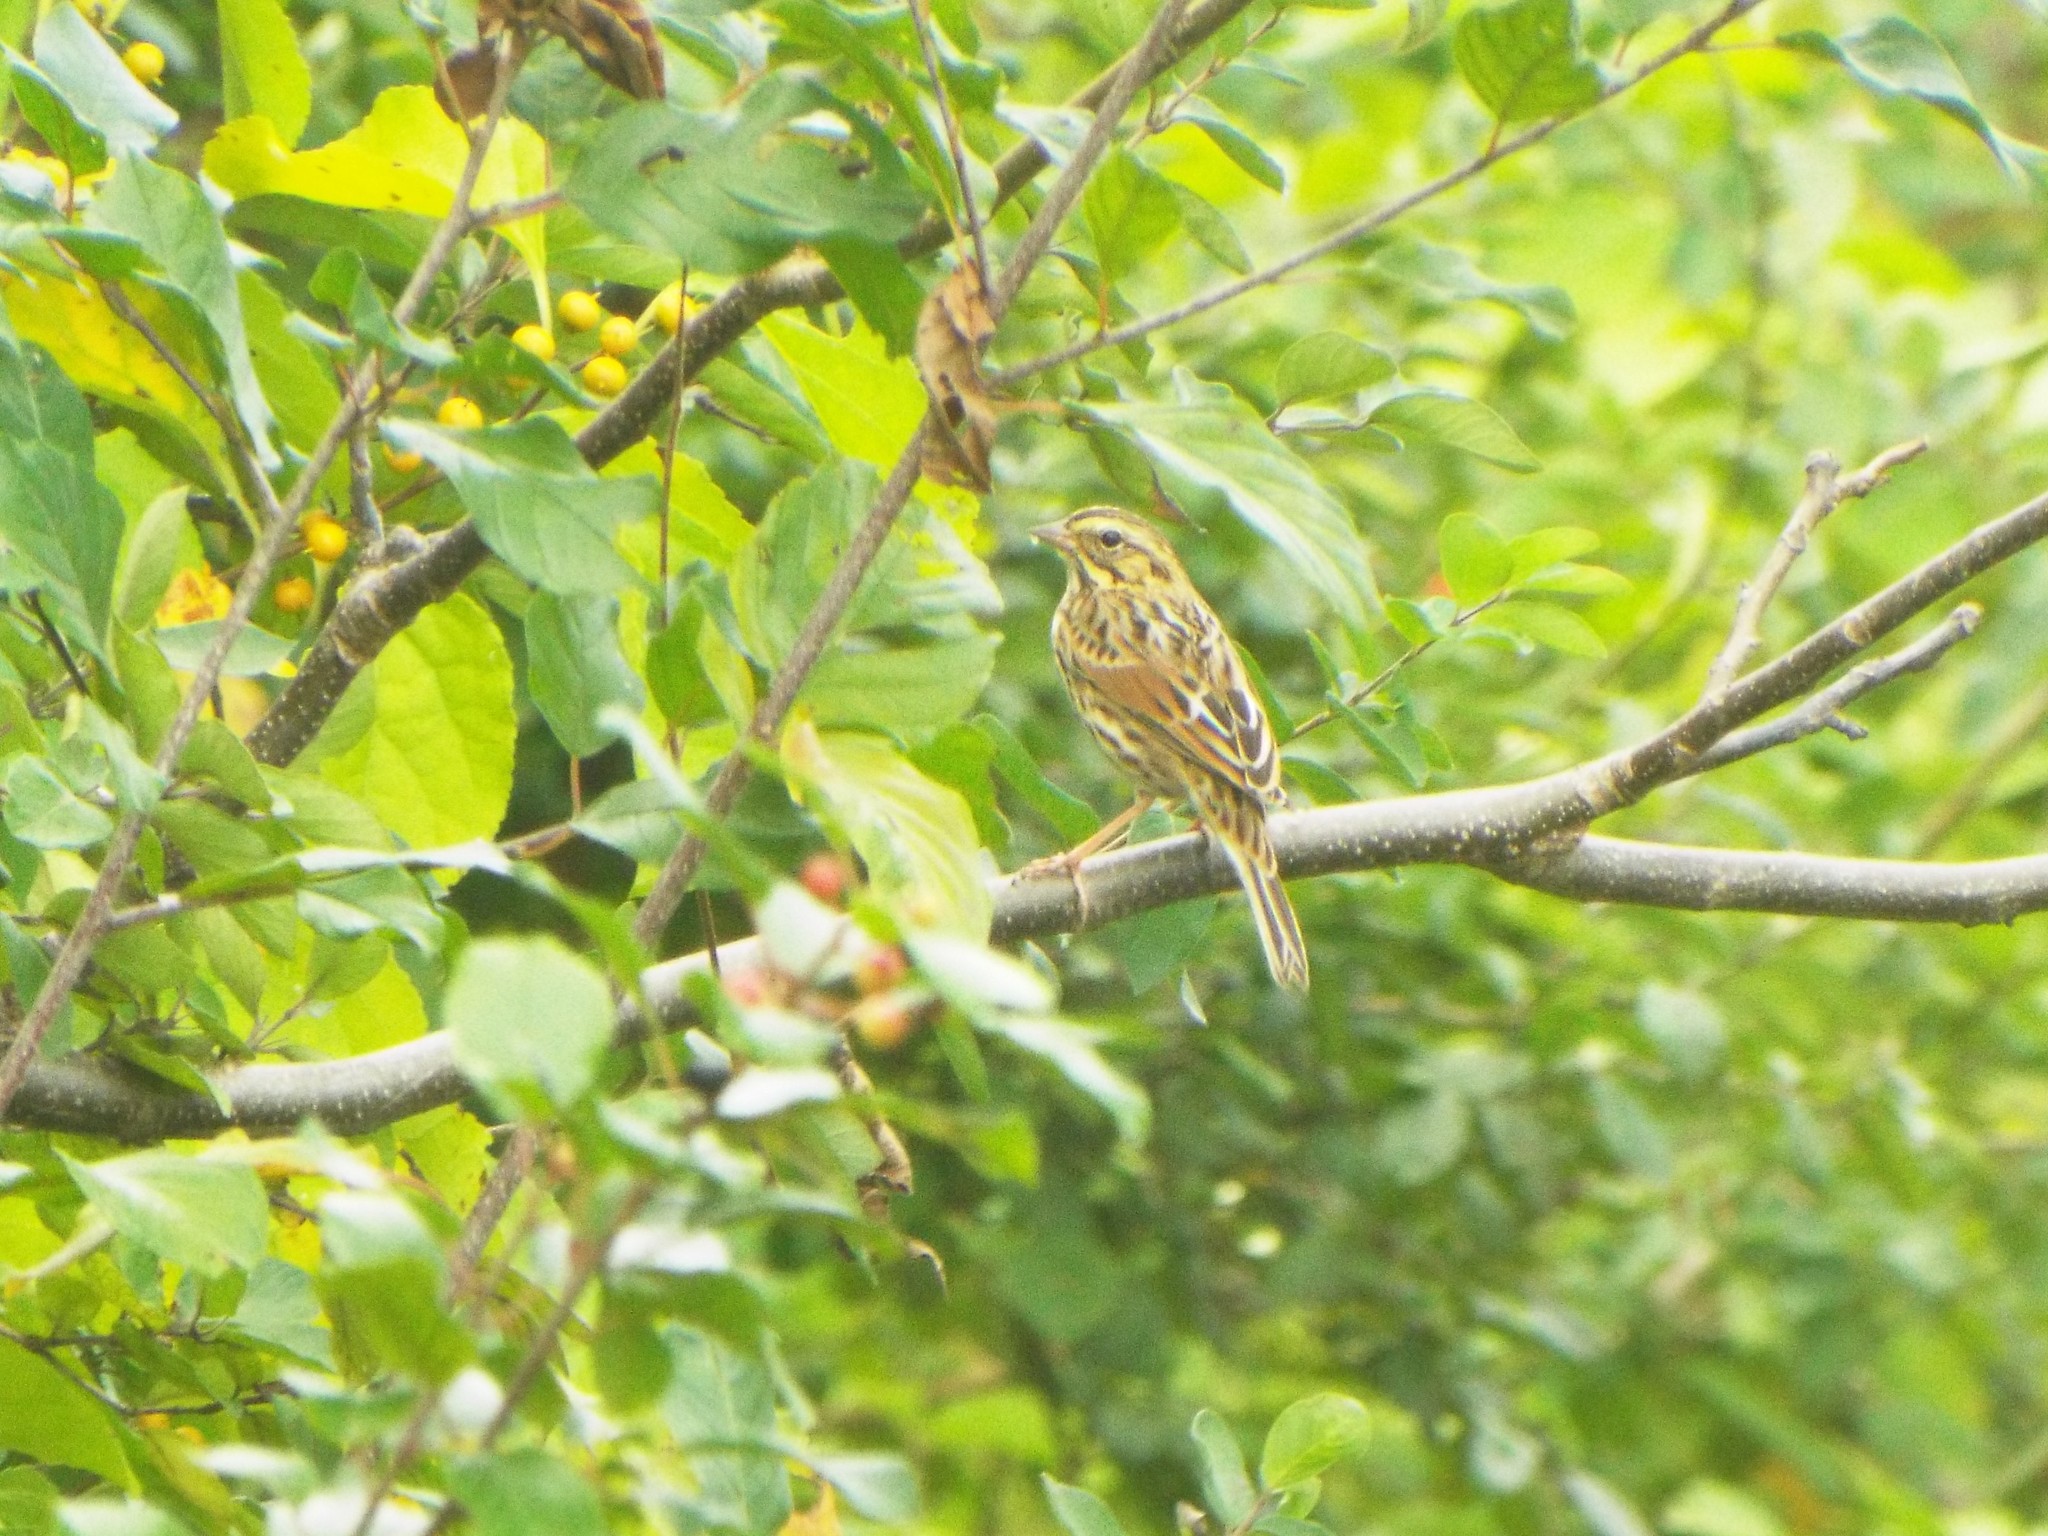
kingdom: Animalia
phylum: Chordata
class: Aves
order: Passeriformes
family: Passerellidae
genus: Passerculus
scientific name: Passerculus sandwichensis
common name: Savannah sparrow
